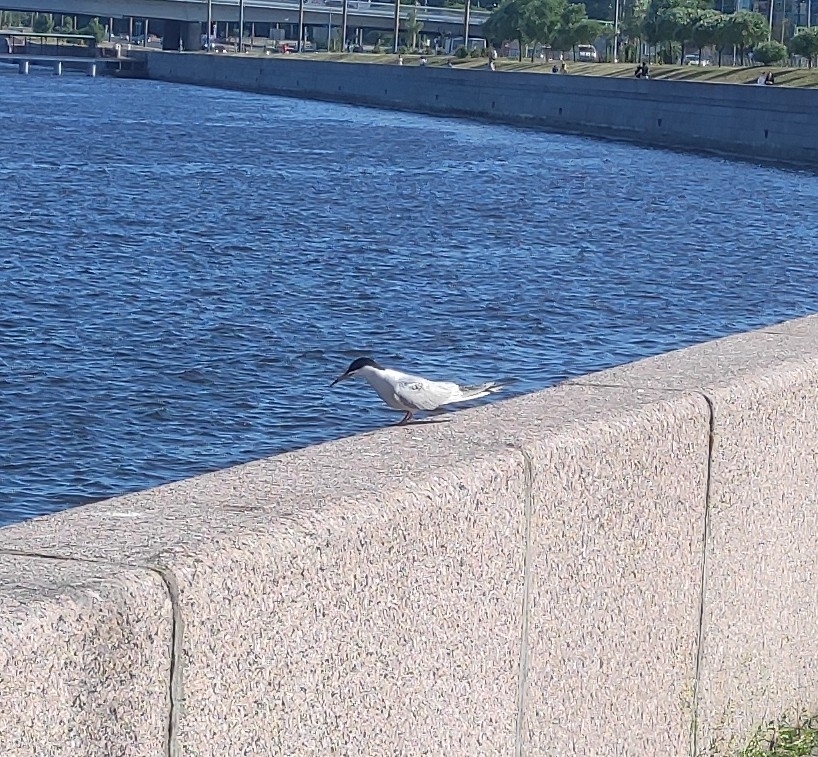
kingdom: Animalia
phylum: Chordata
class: Aves
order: Charadriiformes
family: Laridae
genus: Sterna
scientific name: Sterna hirundo
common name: Common tern
